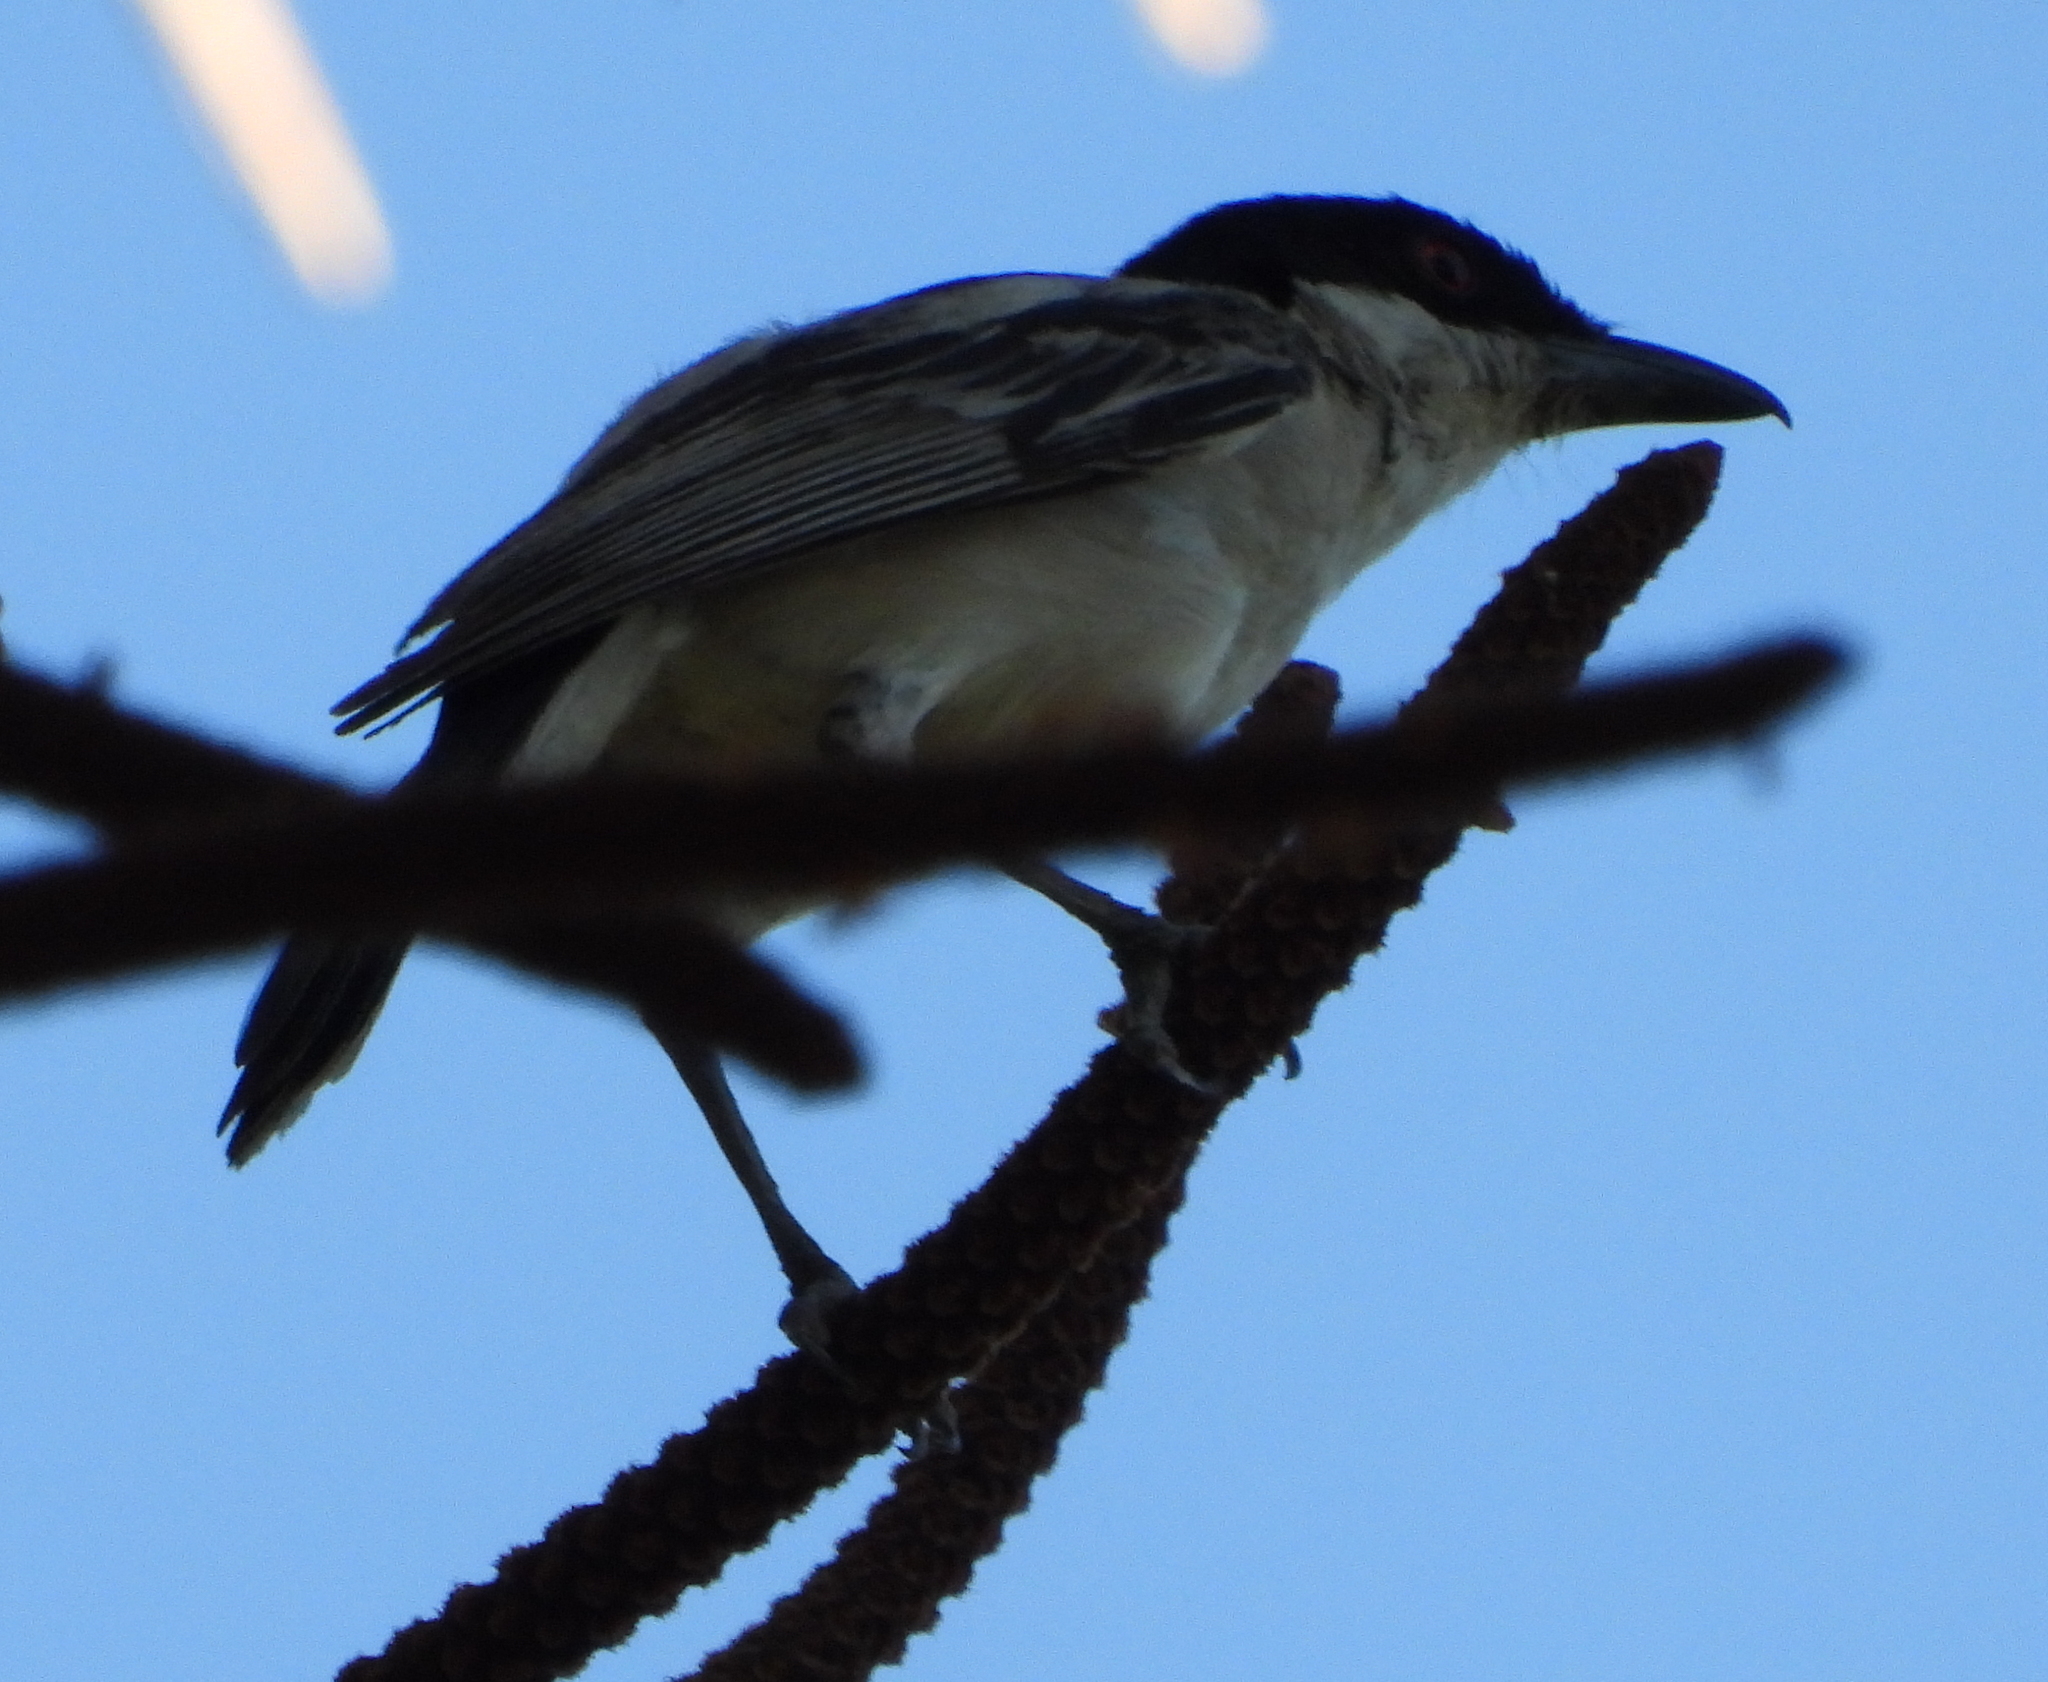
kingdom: Animalia
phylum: Chordata
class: Aves
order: Passeriformes
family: Malaconotidae
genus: Dryoscopus
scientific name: Dryoscopus cubla
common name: Black-backed puffback
